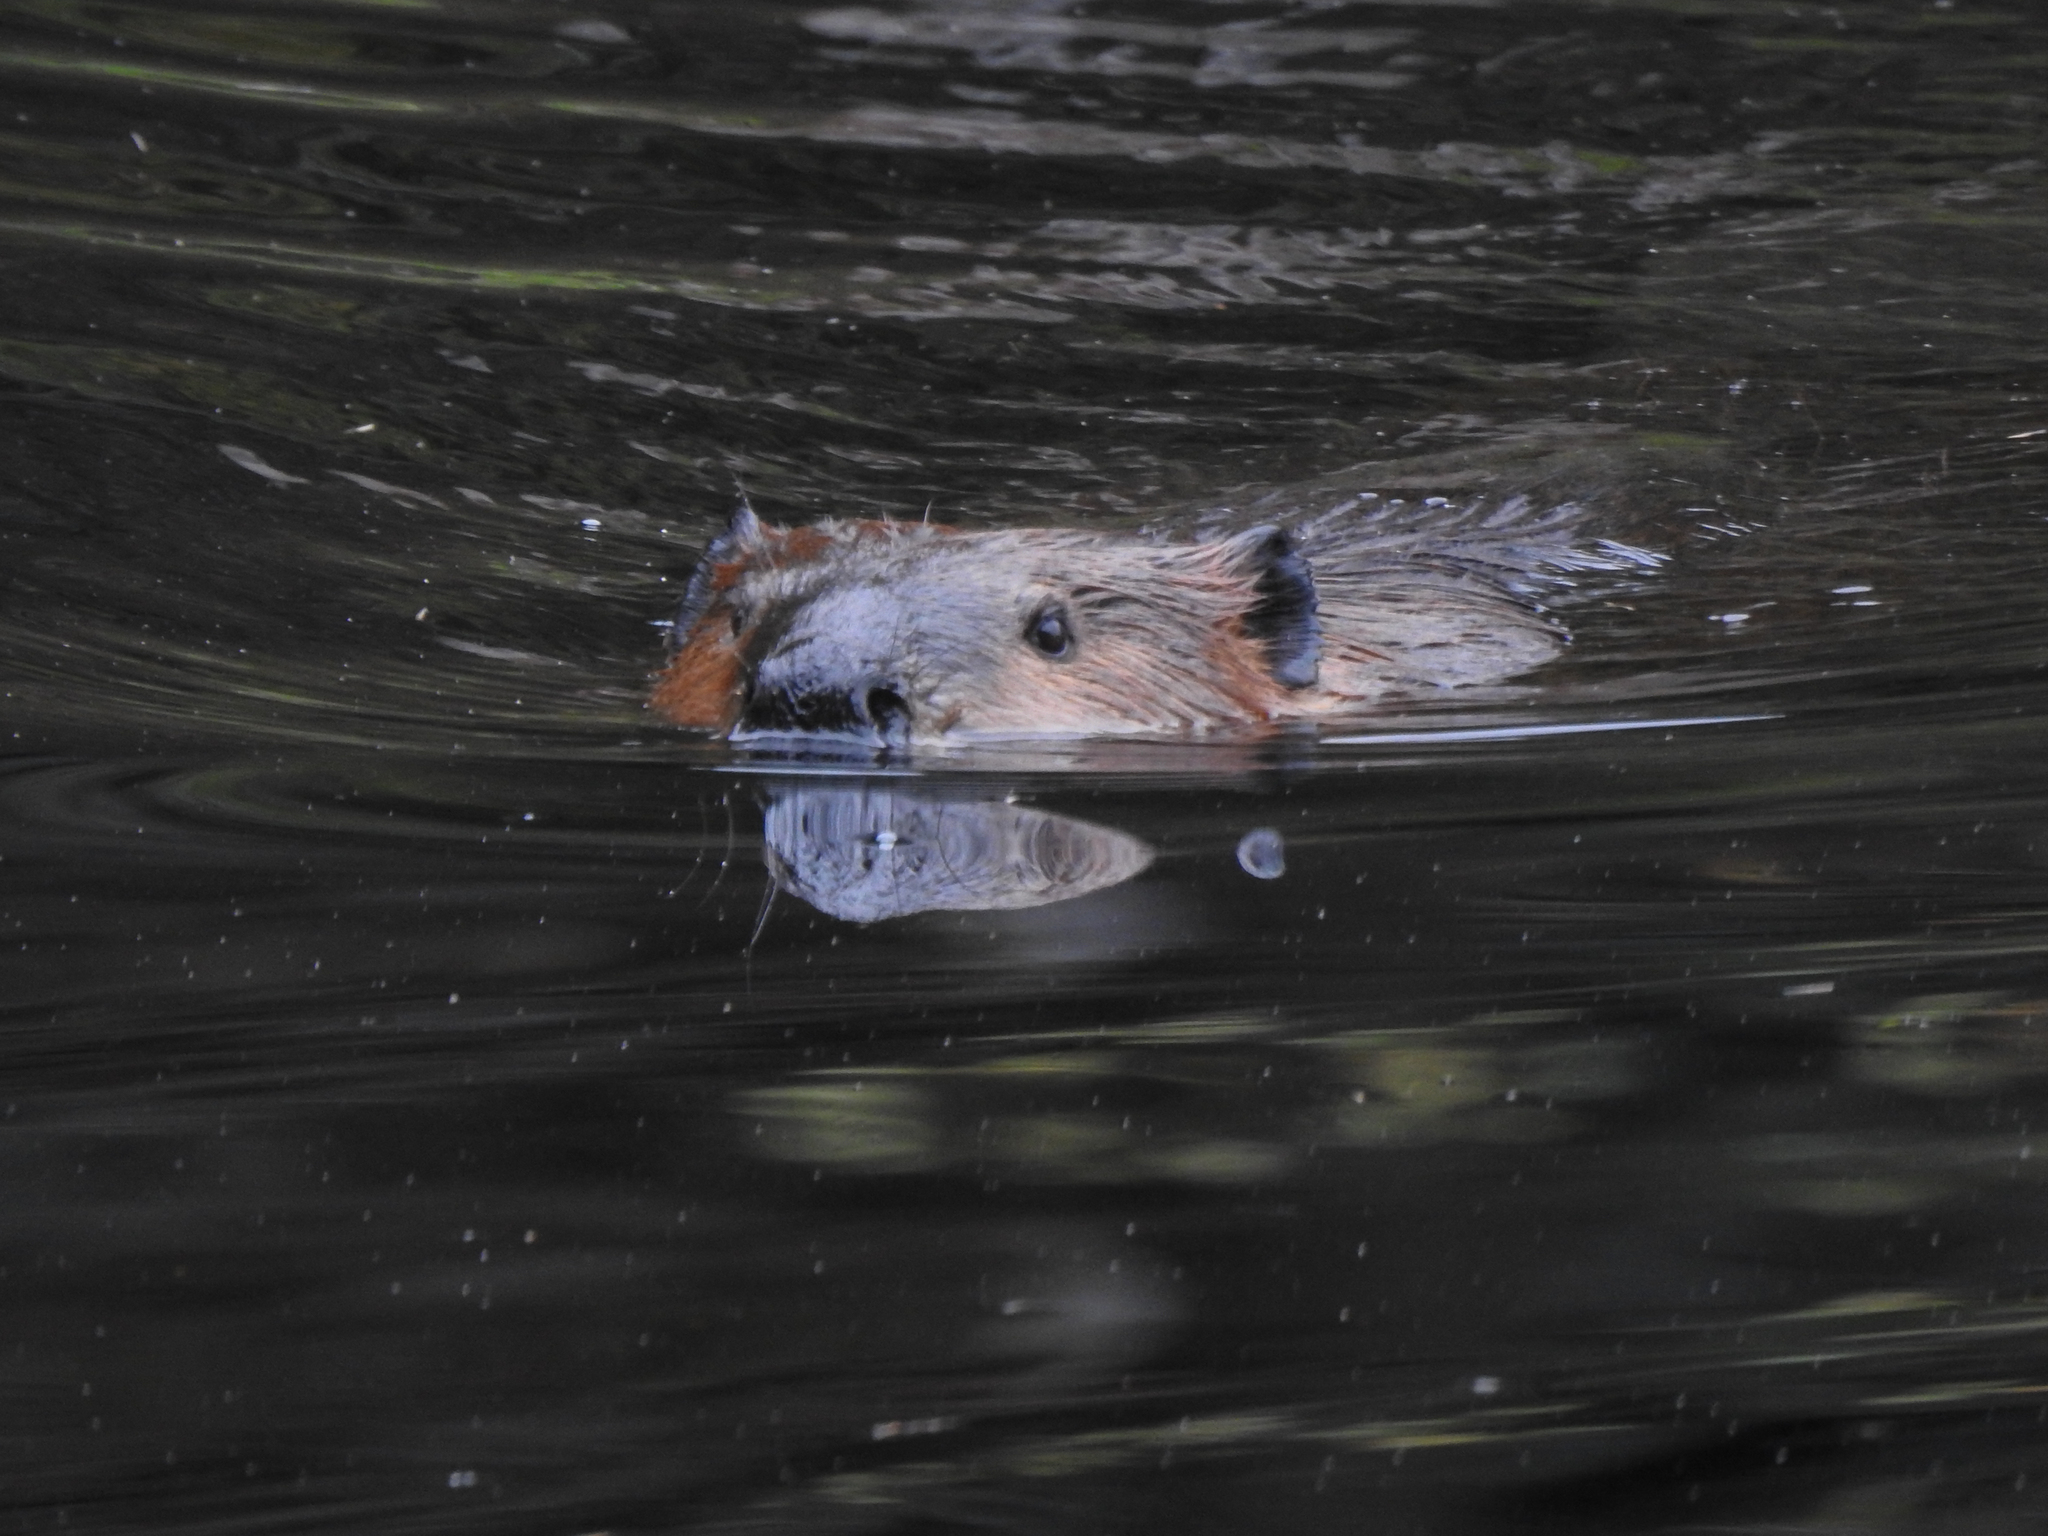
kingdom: Animalia
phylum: Chordata
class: Mammalia
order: Rodentia
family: Castoridae
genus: Castor
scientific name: Castor canadensis
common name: American beaver
